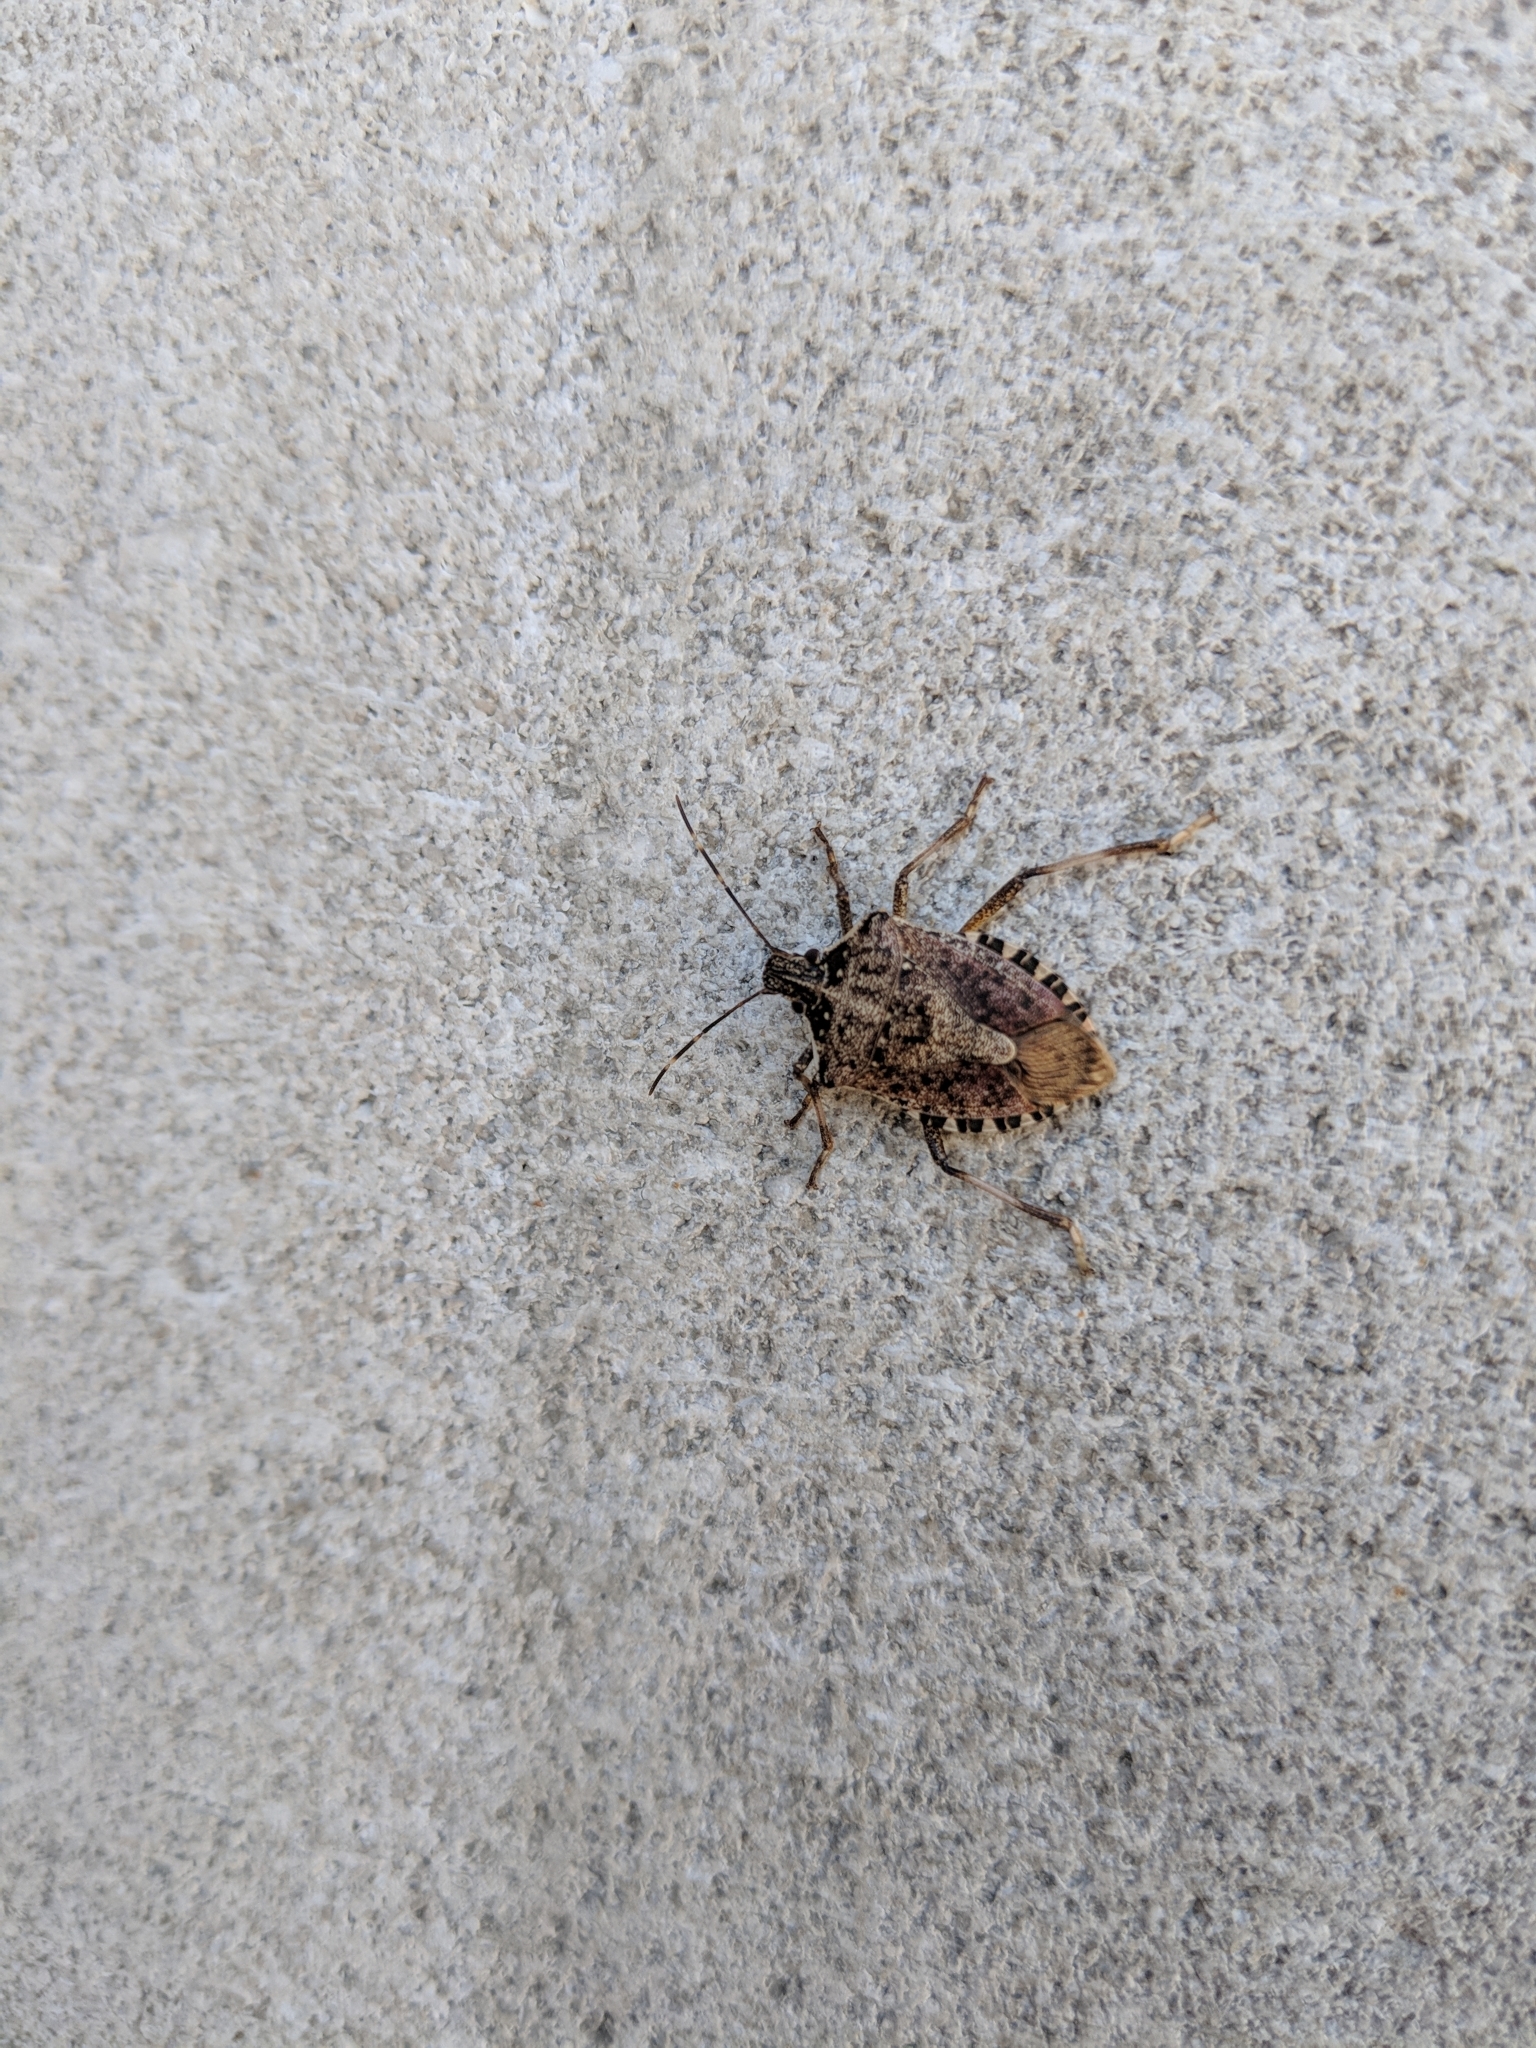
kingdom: Animalia
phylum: Arthropoda
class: Insecta
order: Hemiptera
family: Pentatomidae
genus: Halyomorpha
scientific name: Halyomorpha halys
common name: Brown marmorated stink bug
